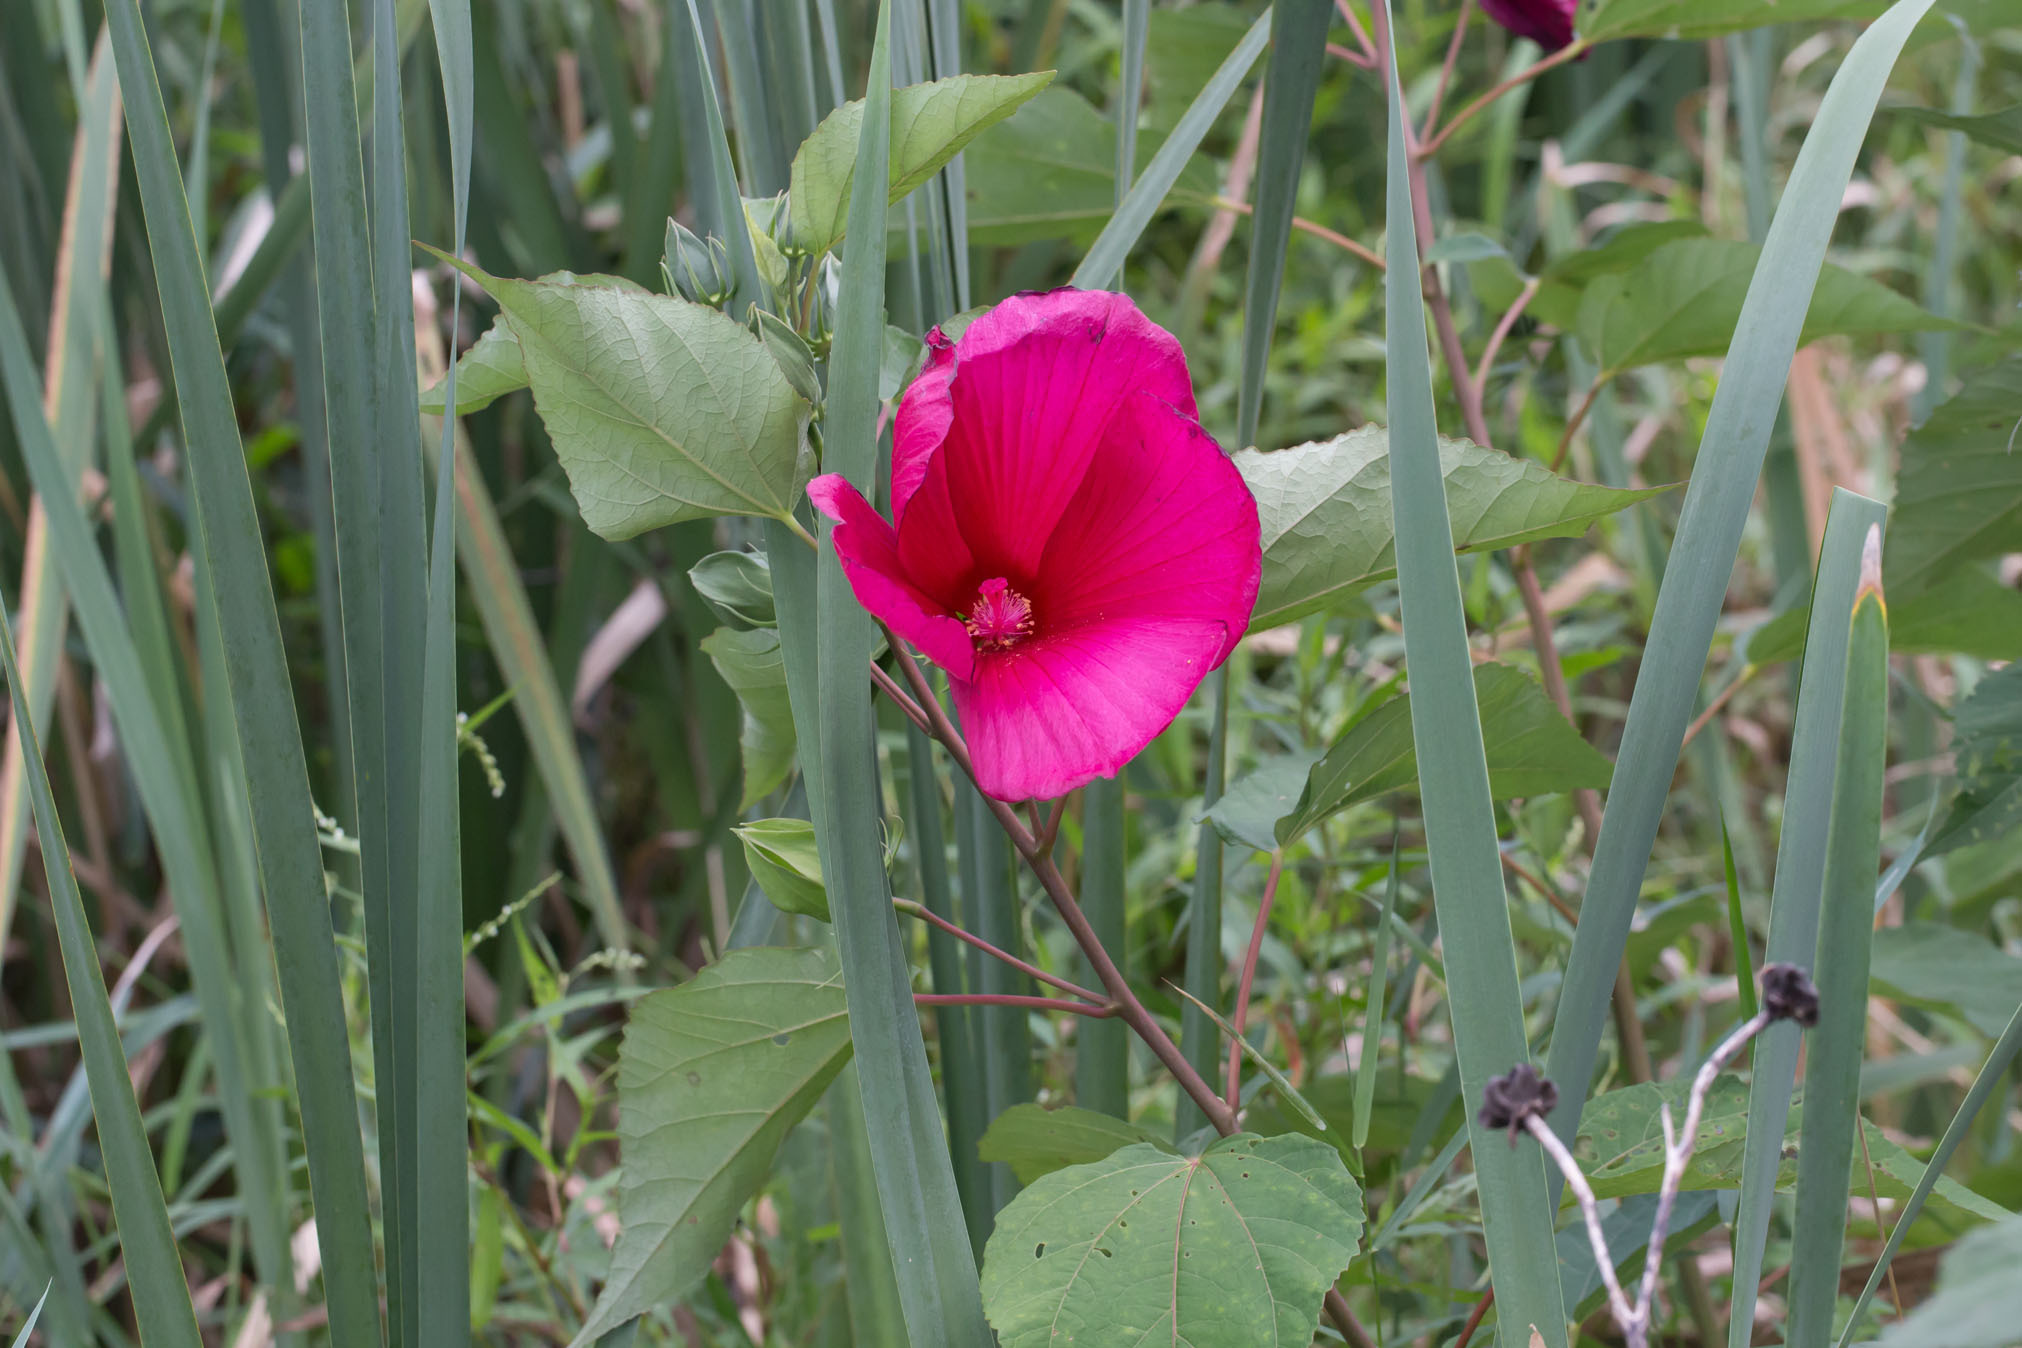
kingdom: Plantae
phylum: Tracheophyta
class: Magnoliopsida
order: Malvales
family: Malvaceae
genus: Hibiscus
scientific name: Hibiscus moscheutos
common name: Common rose-mallow
